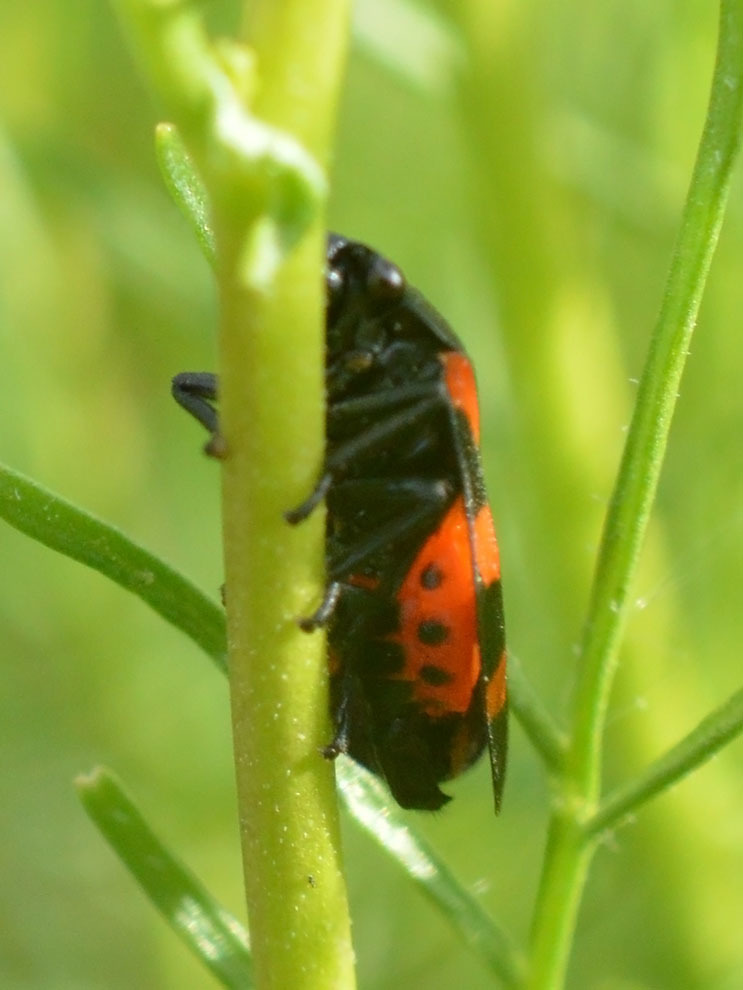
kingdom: Animalia
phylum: Arthropoda
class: Insecta
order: Hemiptera
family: Cercopidae
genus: Cercopis
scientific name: Cercopis sanguinolenta
